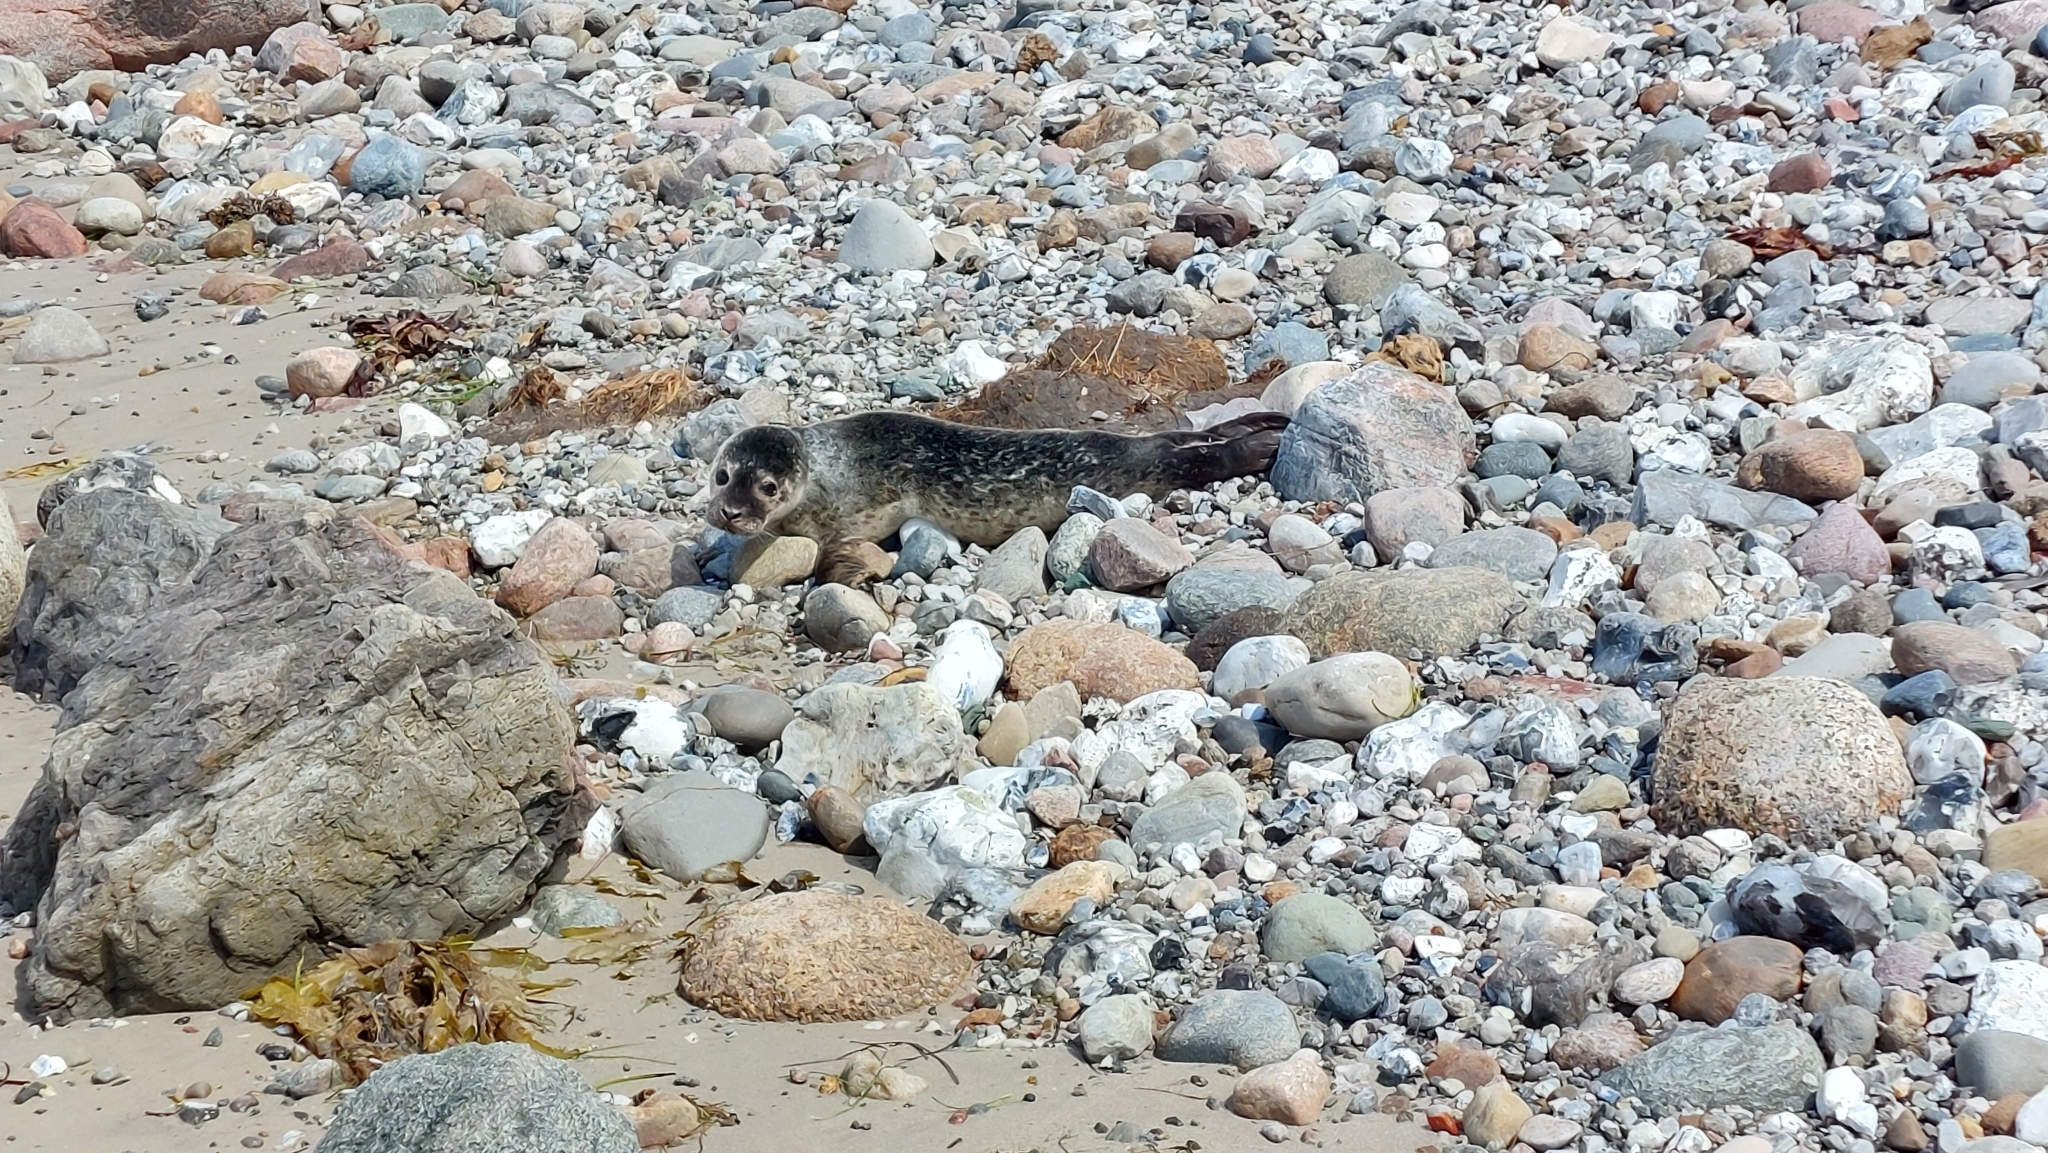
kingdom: Animalia
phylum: Chordata
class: Mammalia
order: Carnivora
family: Phocidae
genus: Phoca
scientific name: Phoca vitulina
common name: Harbor seal
